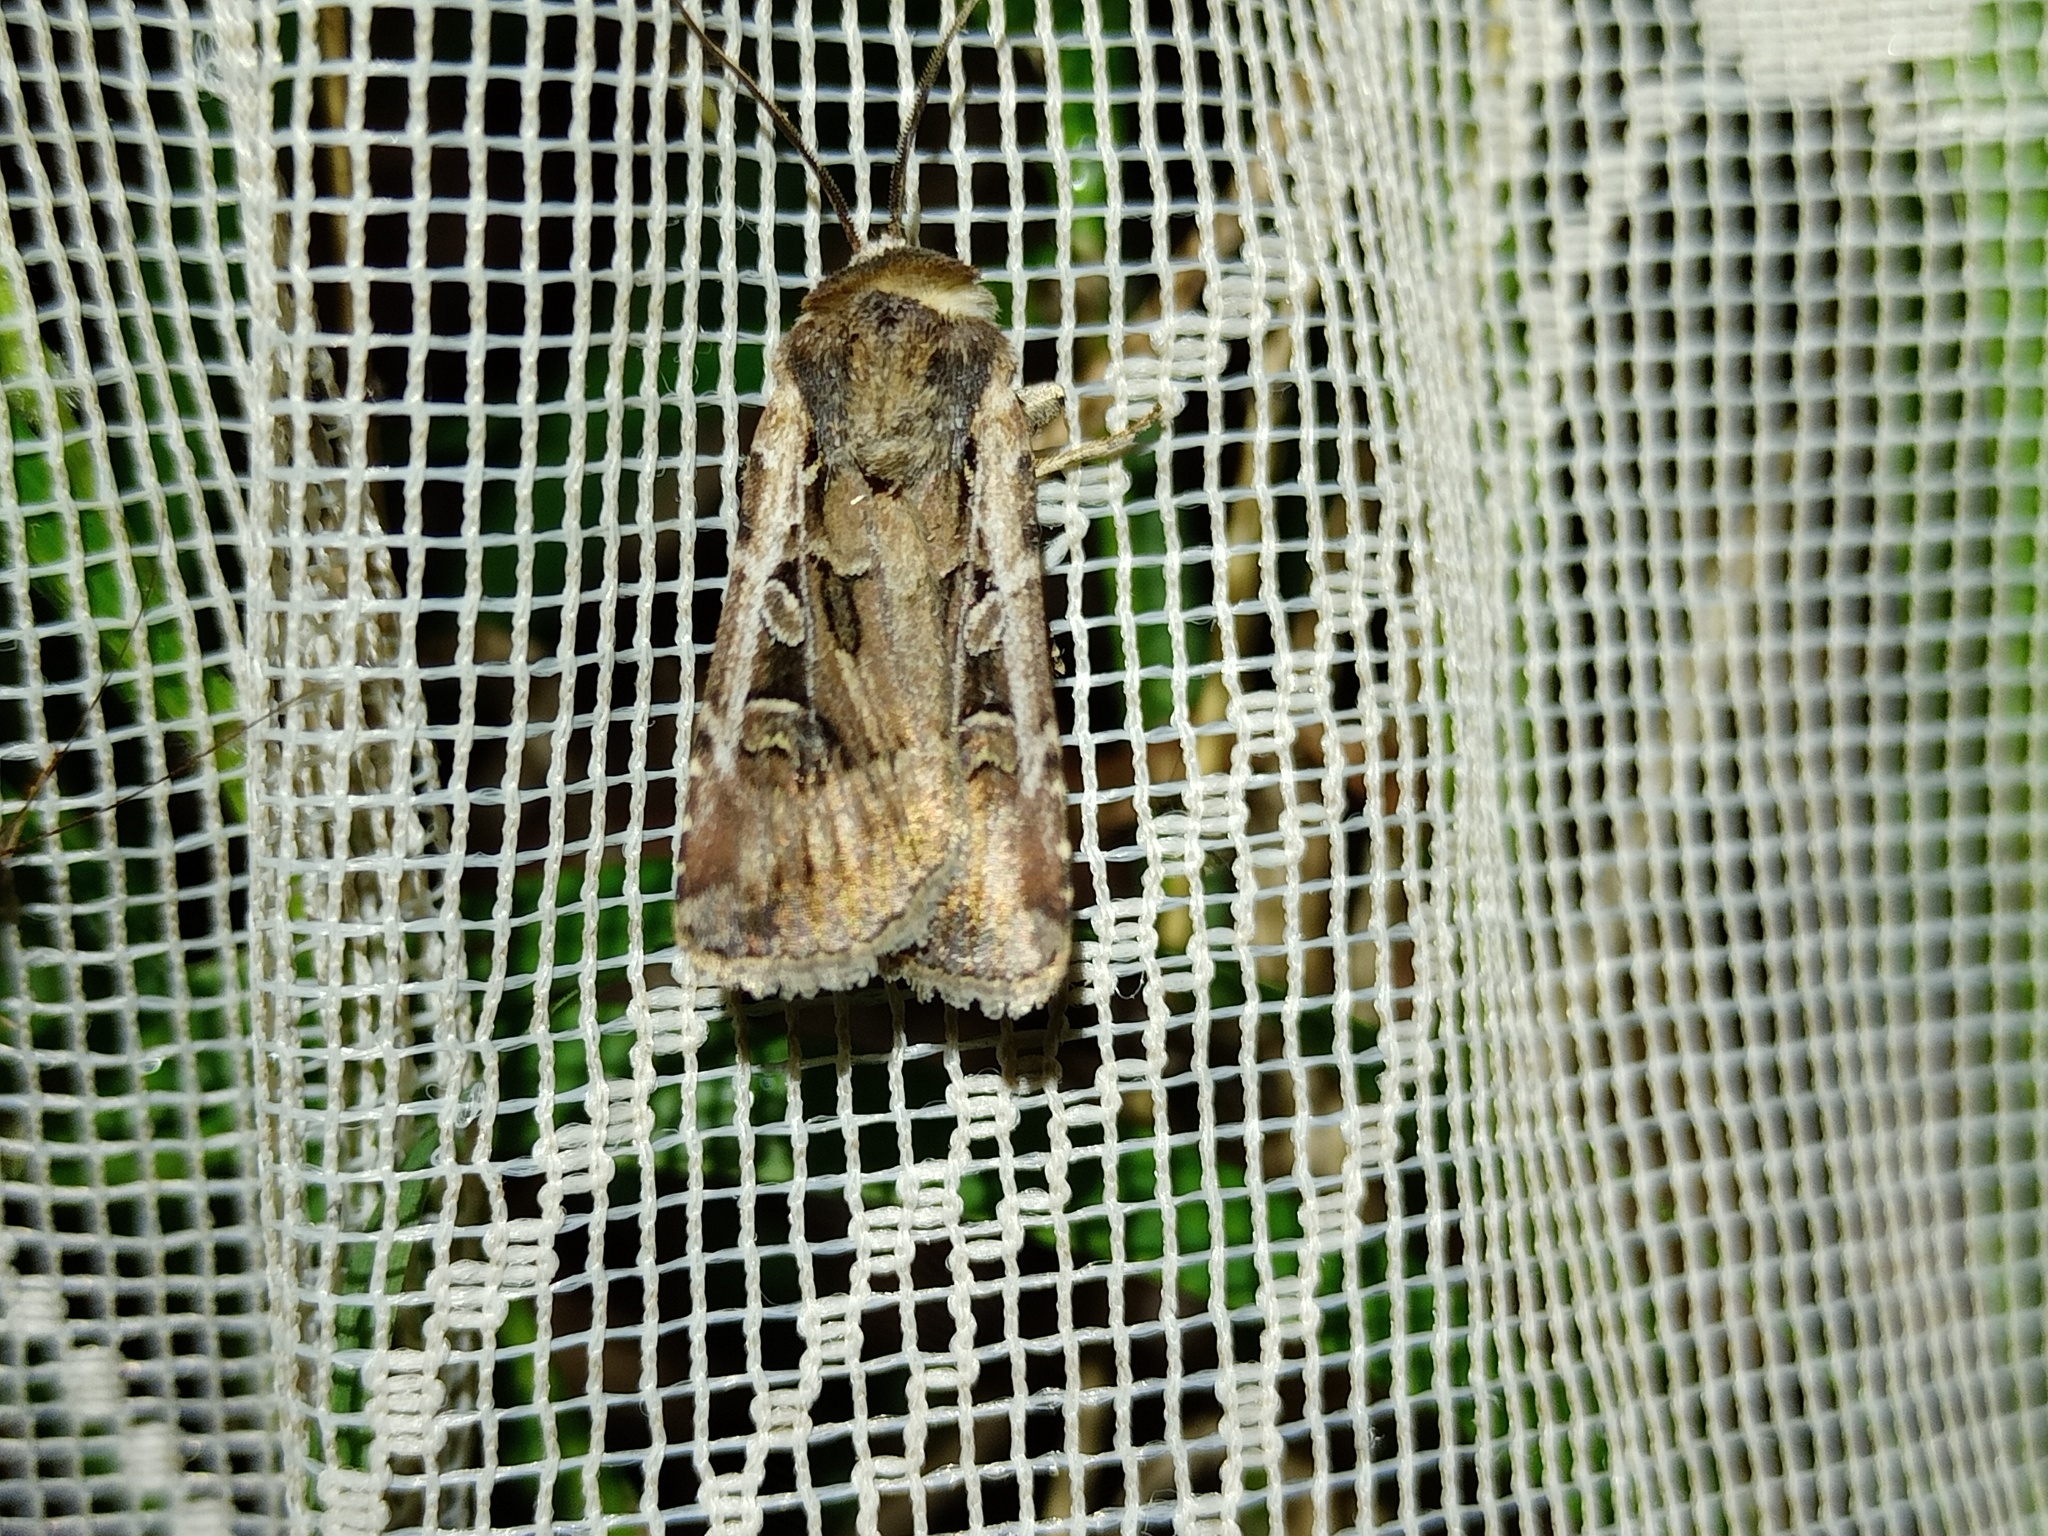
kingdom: Animalia
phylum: Arthropoda
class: Insecta
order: Lepidoptera
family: Noctuidae
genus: Euxoa
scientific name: Euxoa nigrofusca
